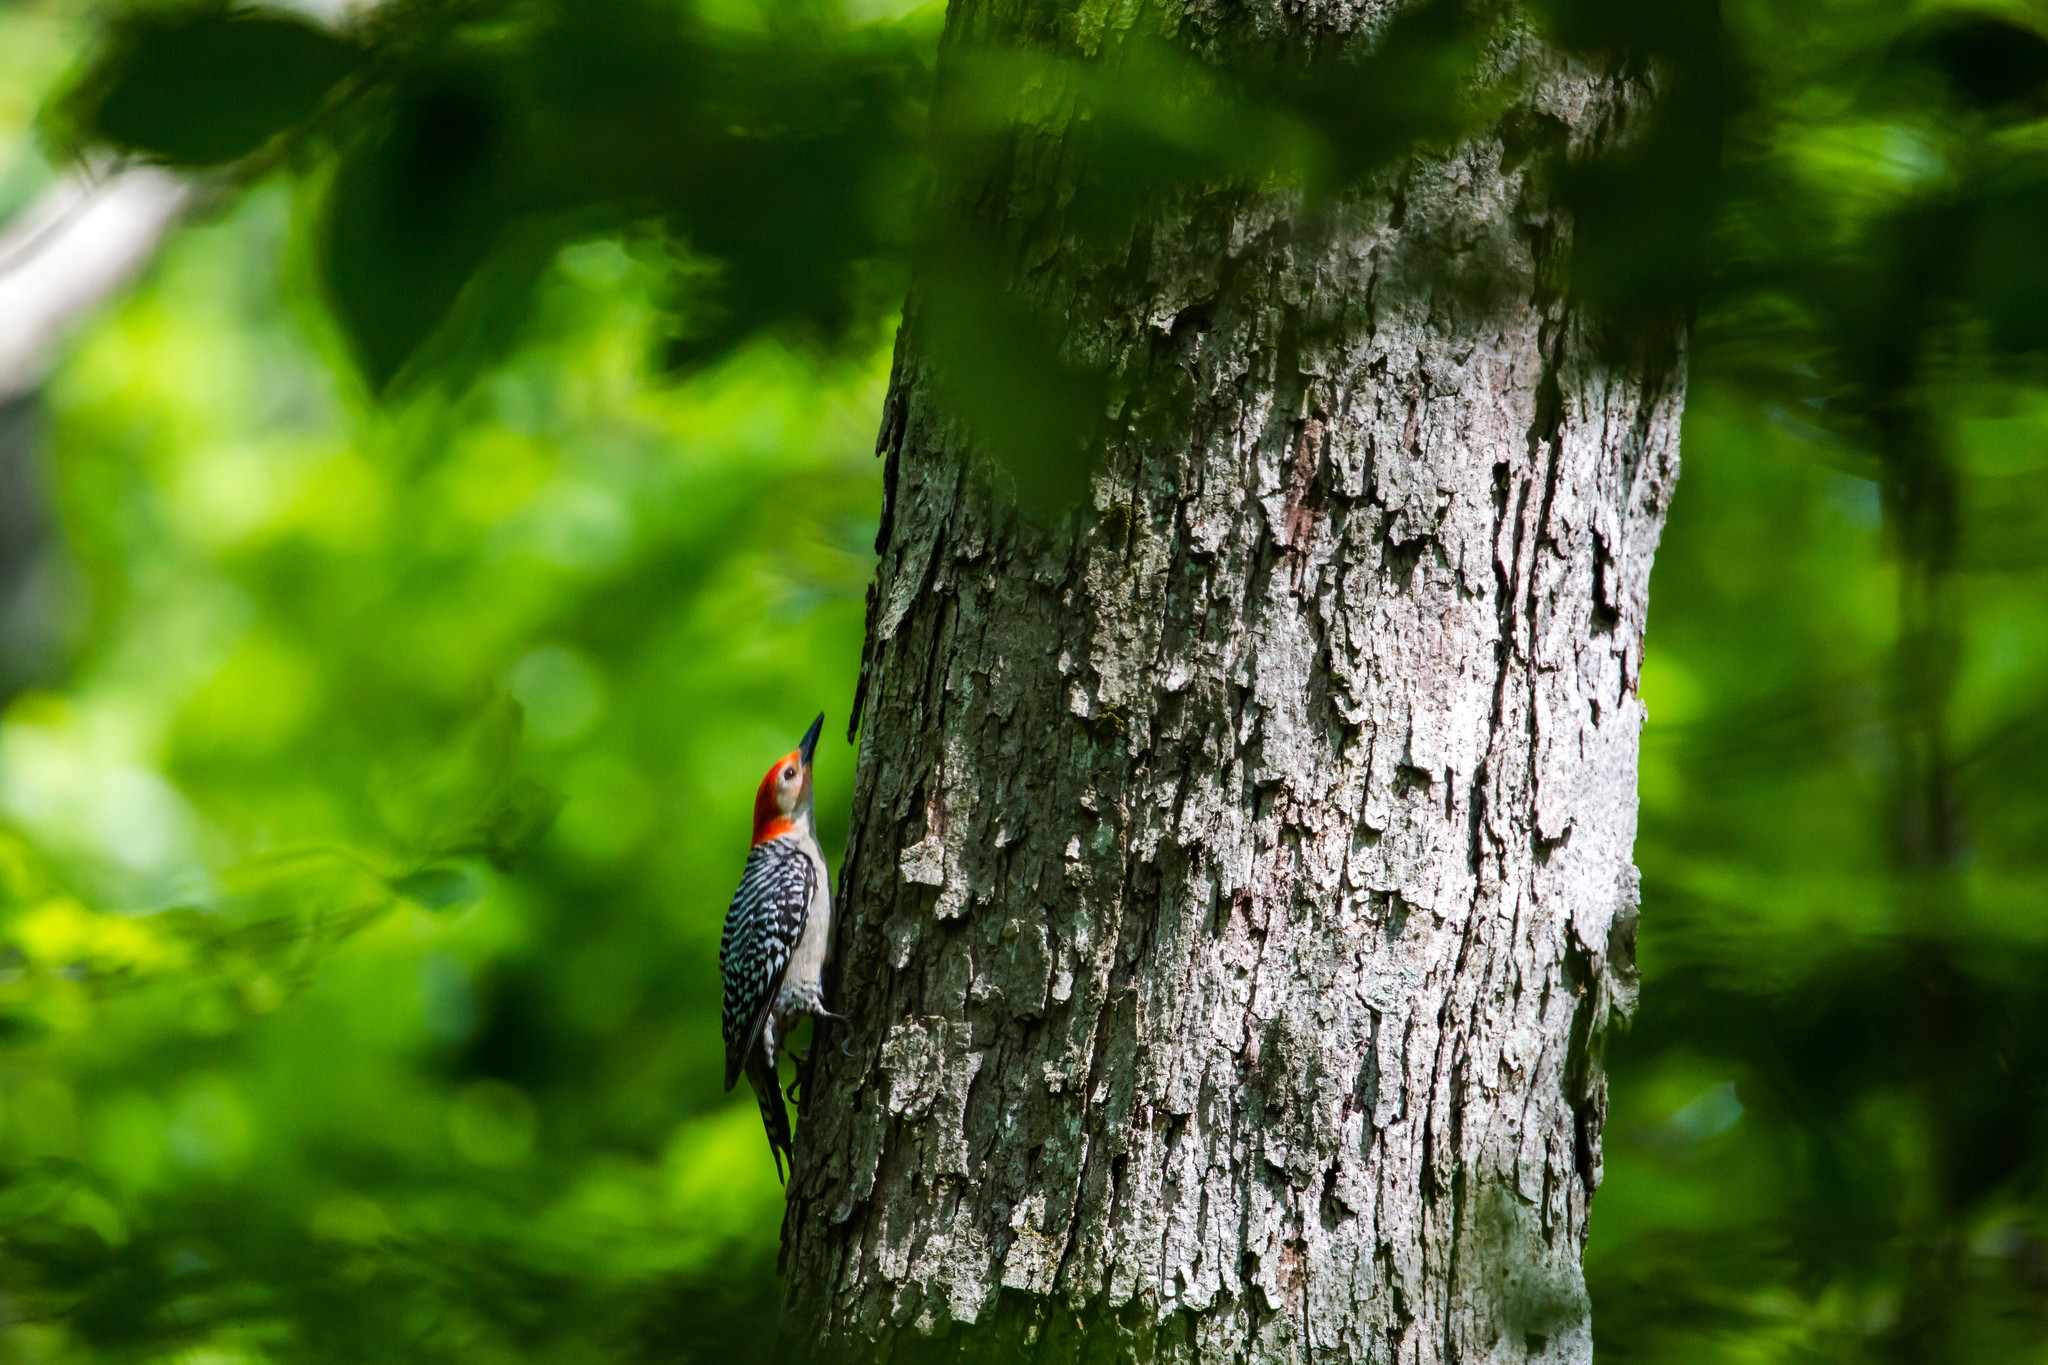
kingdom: Animalia
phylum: Chordata
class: Aves
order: Piciformes
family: Picidae
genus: Melanerpes
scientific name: Melanerpes carolinus
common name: Red-bellied woodpecker
